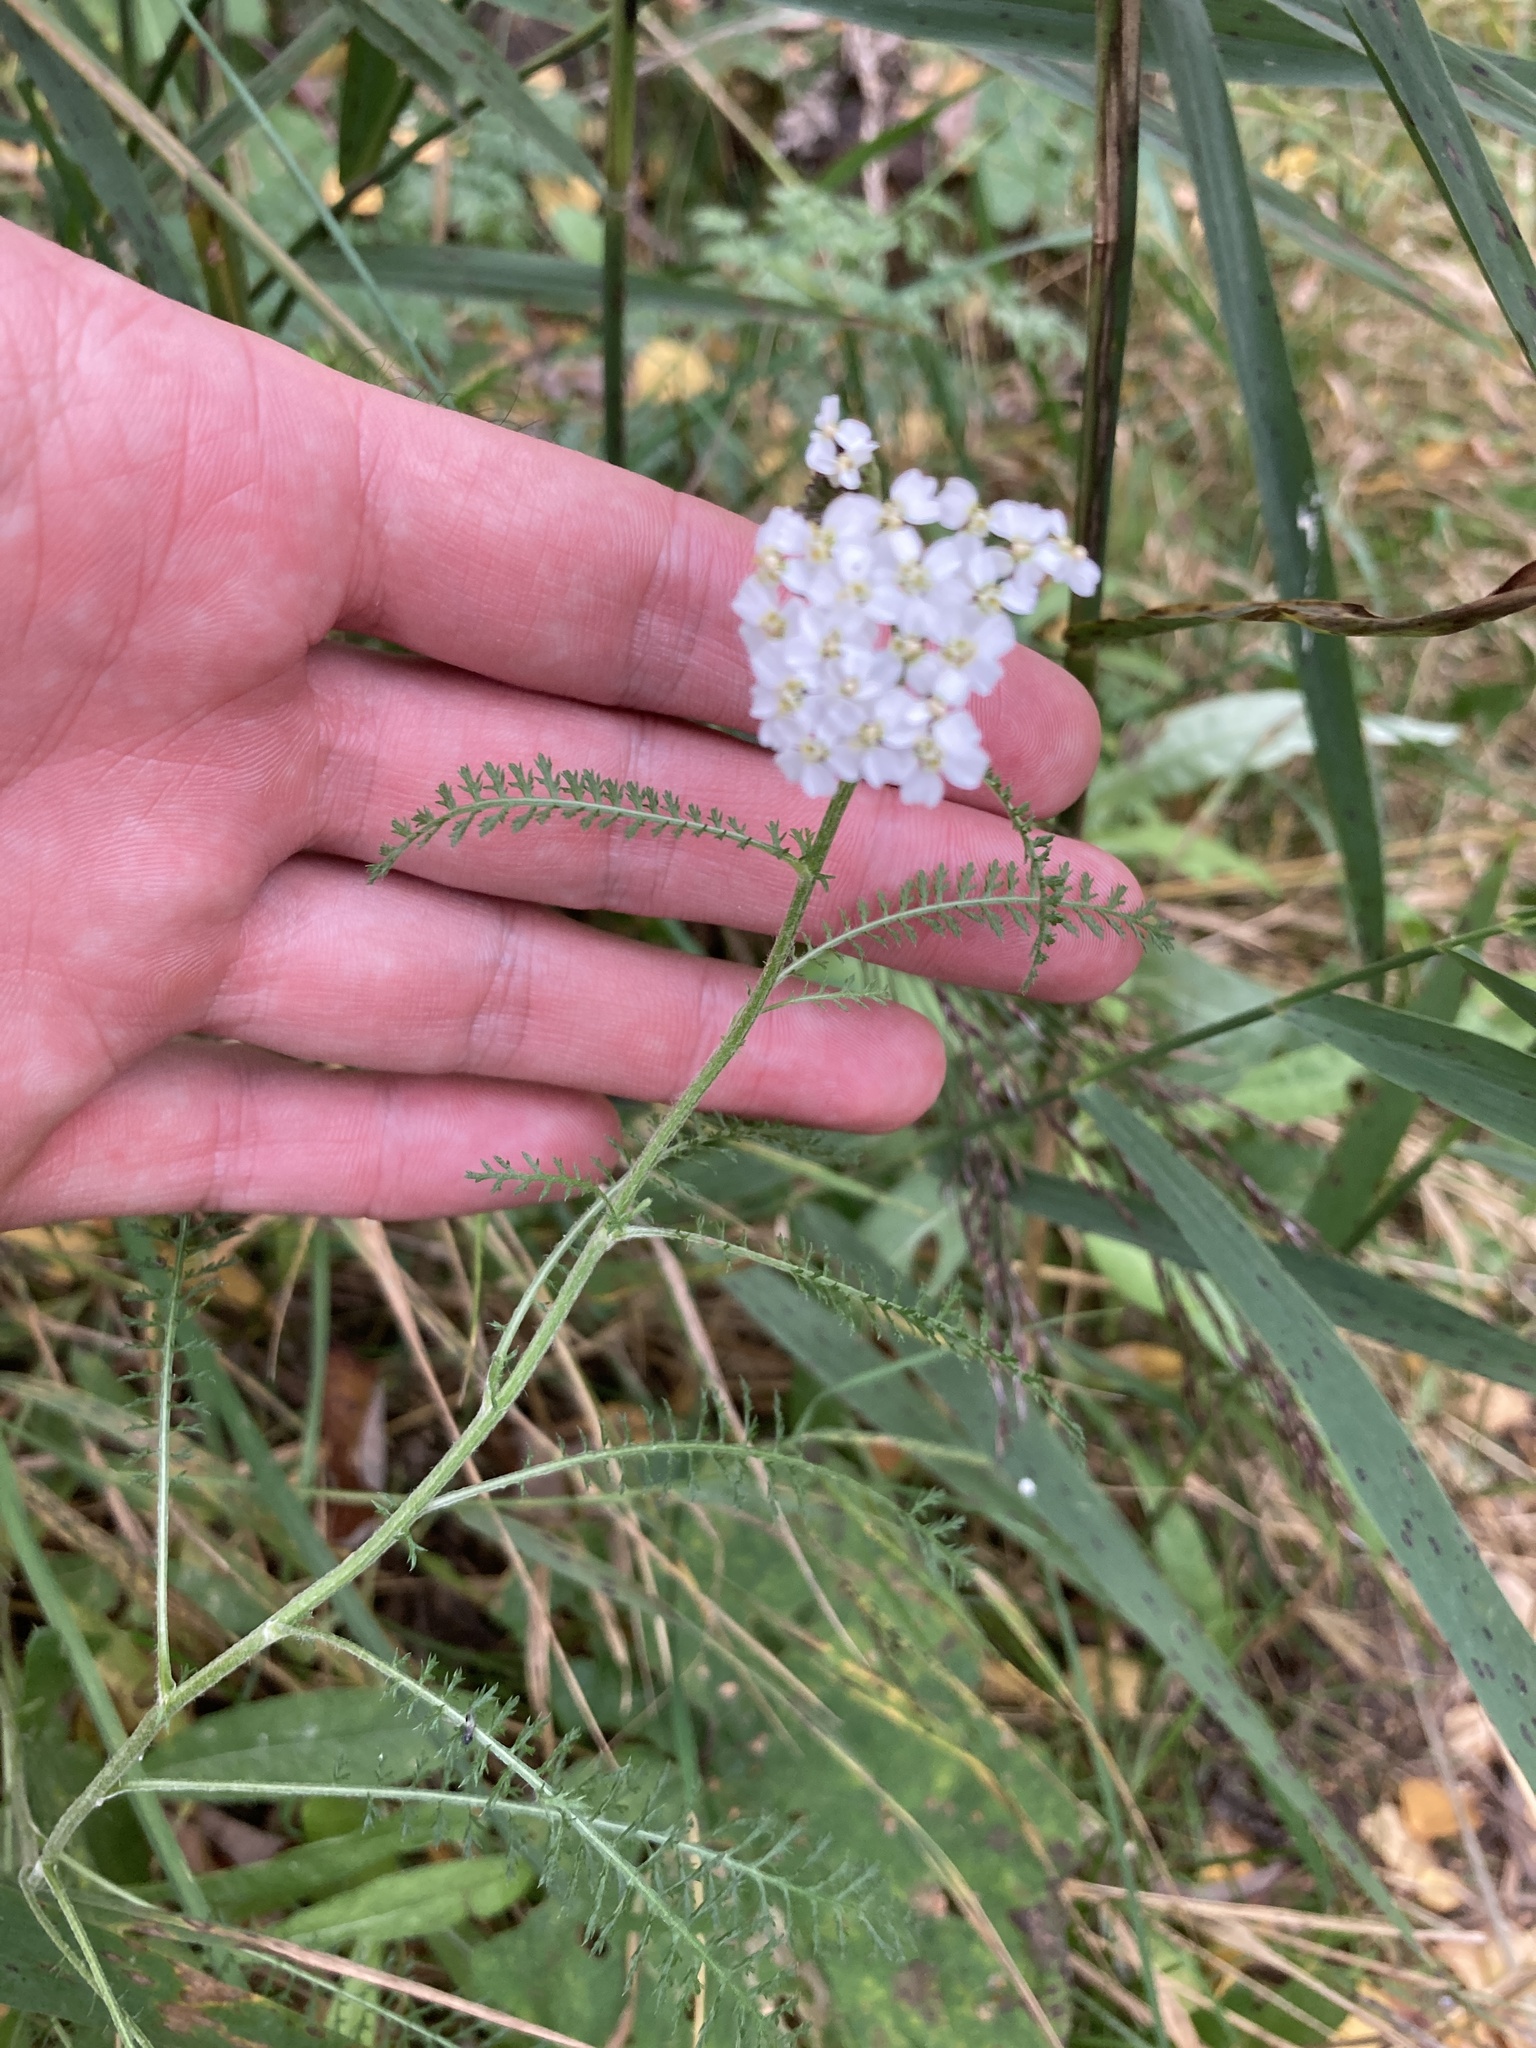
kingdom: Plantae
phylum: Tracheophyta
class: Magnoliopsida
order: Asterales
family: Asteraceae
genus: Achillea
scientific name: Achillea millefolium
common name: Yarrow
